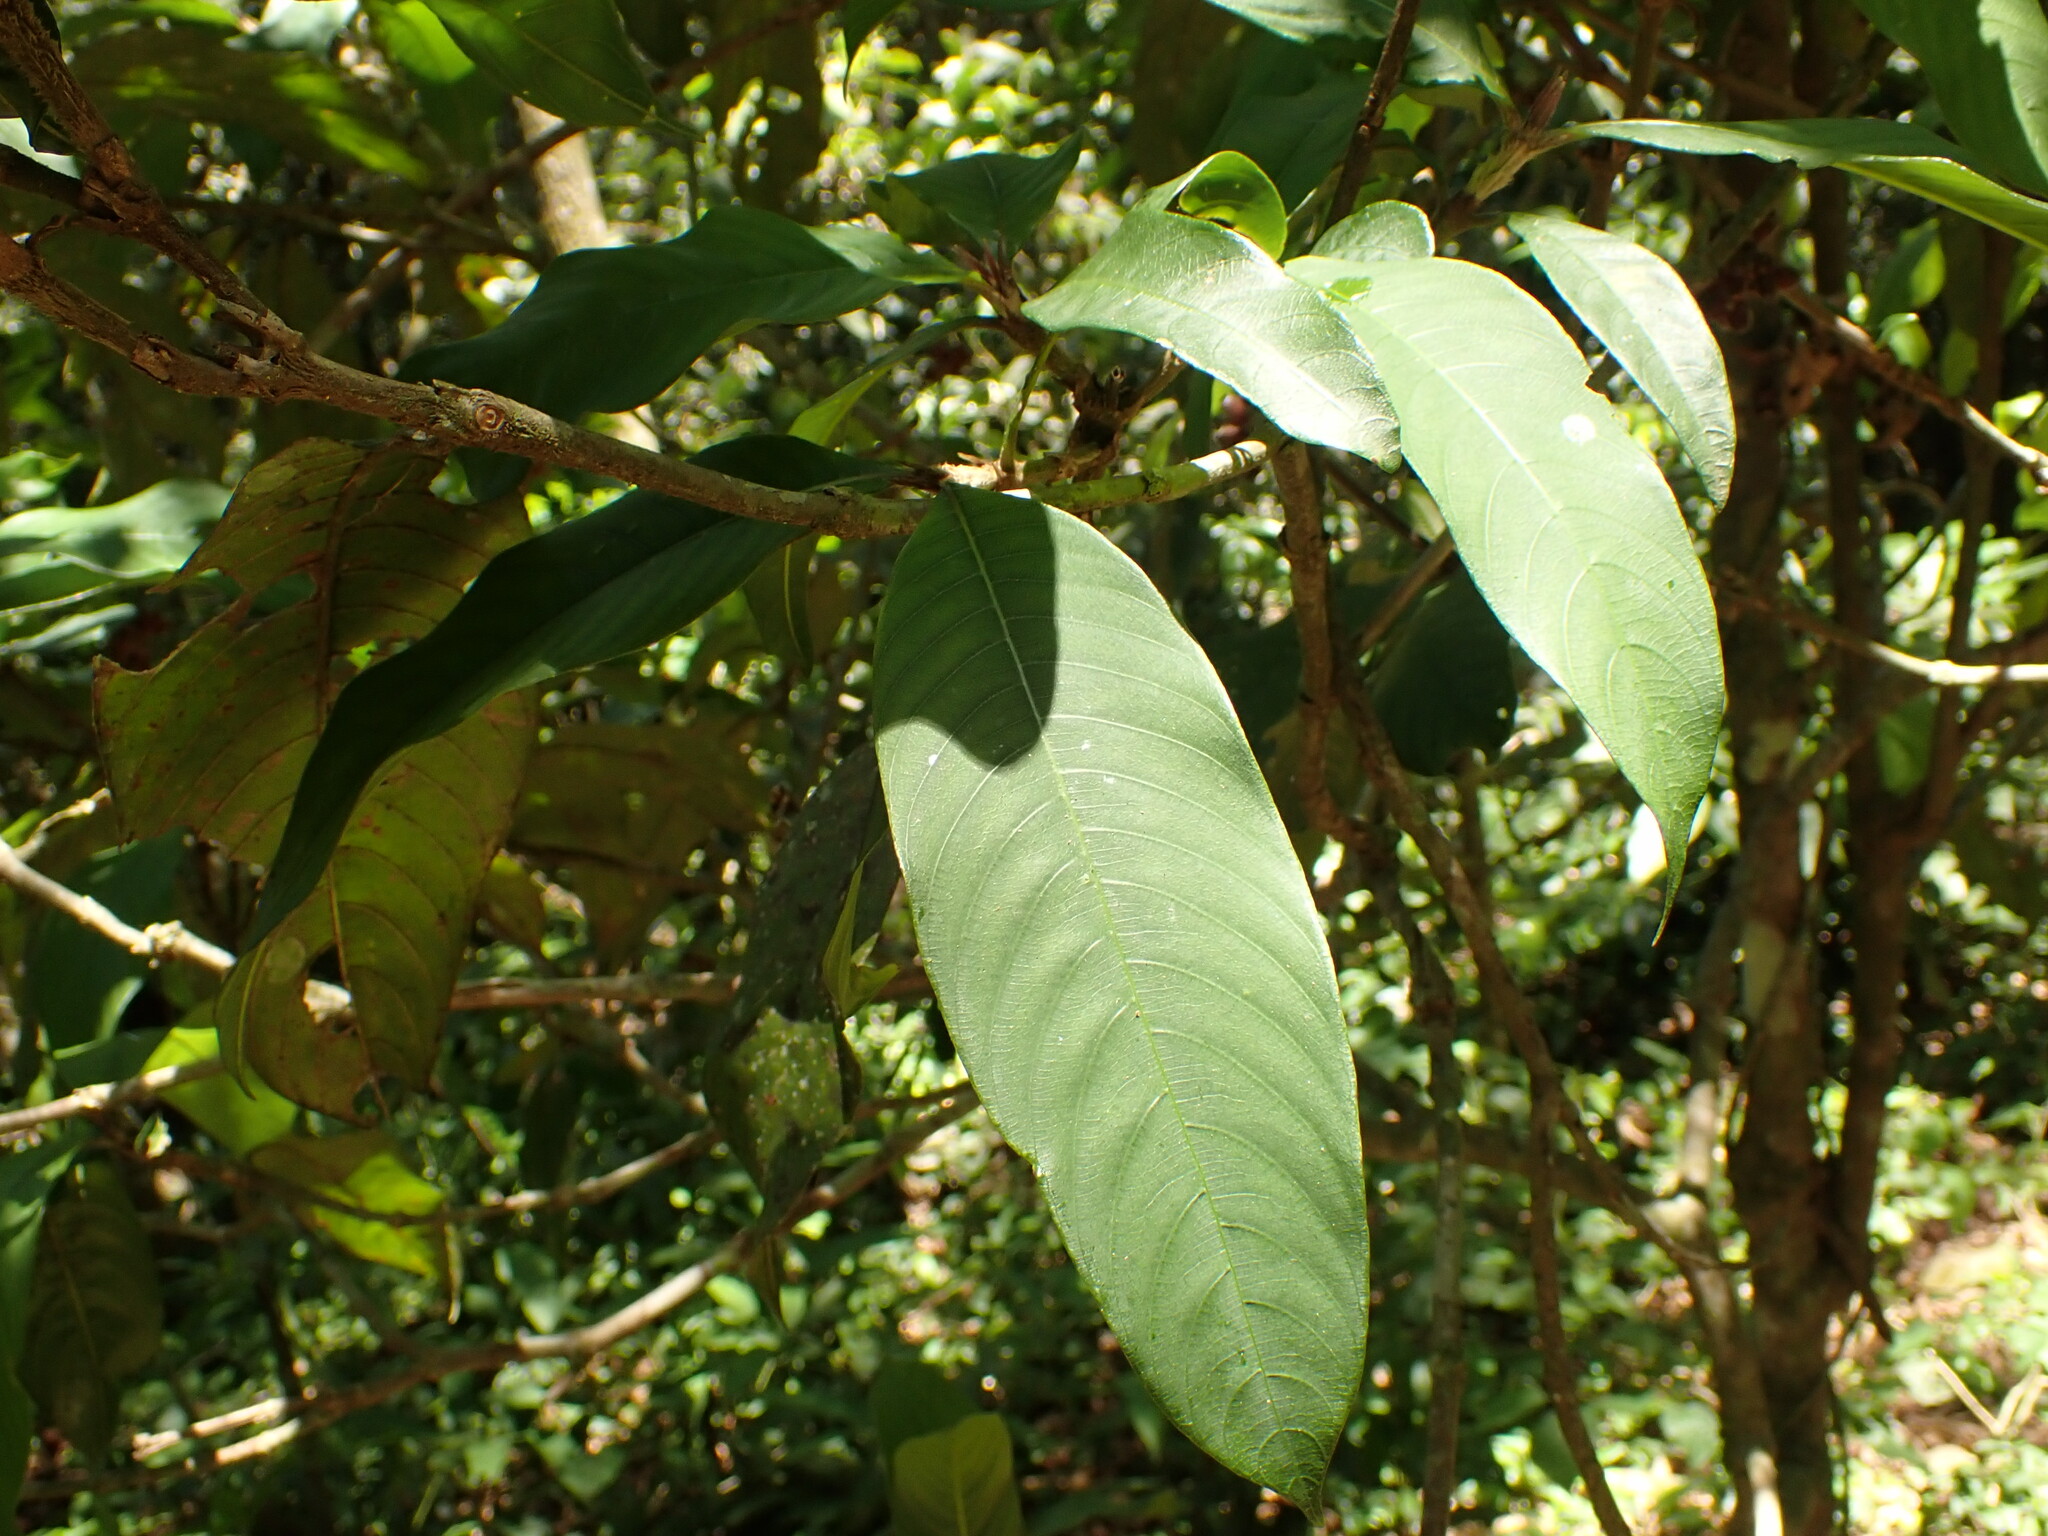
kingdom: Plantae
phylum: Tracheophyta
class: Magnoliopsida
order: Gentianales
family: Rubiaceae
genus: Palicourea
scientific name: Palicourea fulgens
